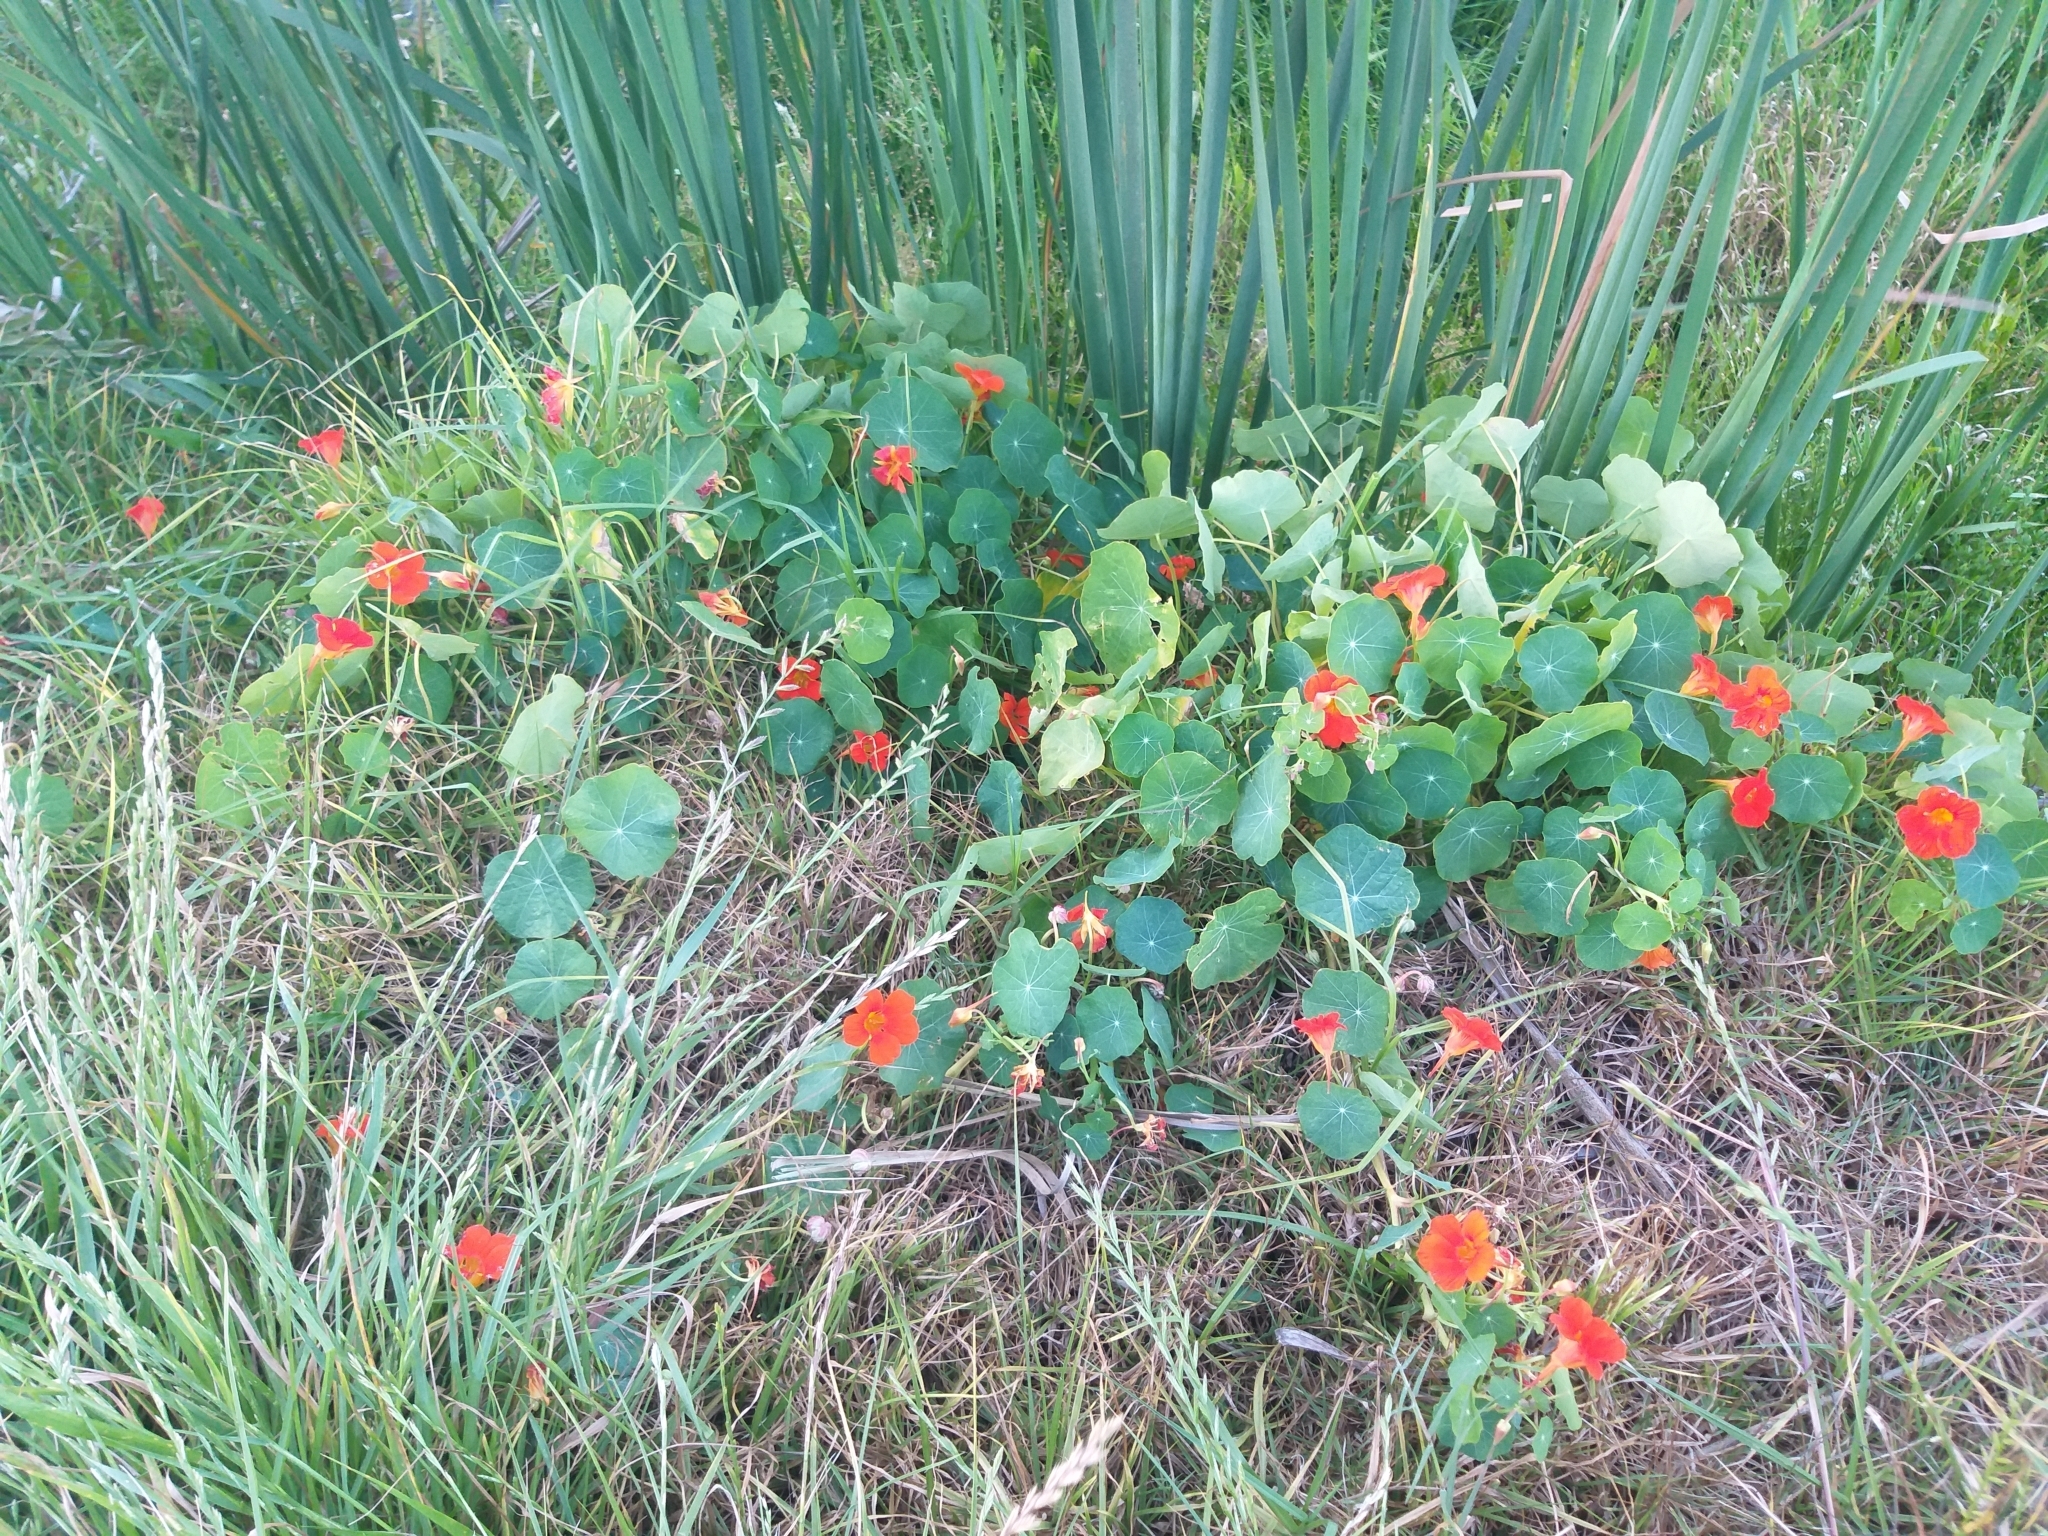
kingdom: Plantae
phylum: Tracheophyta
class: Magnoliopsida
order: Brassicales
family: Tropaeolaceae
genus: Tropaeolum
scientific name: Tropaeolum majus
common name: Nasturtium
